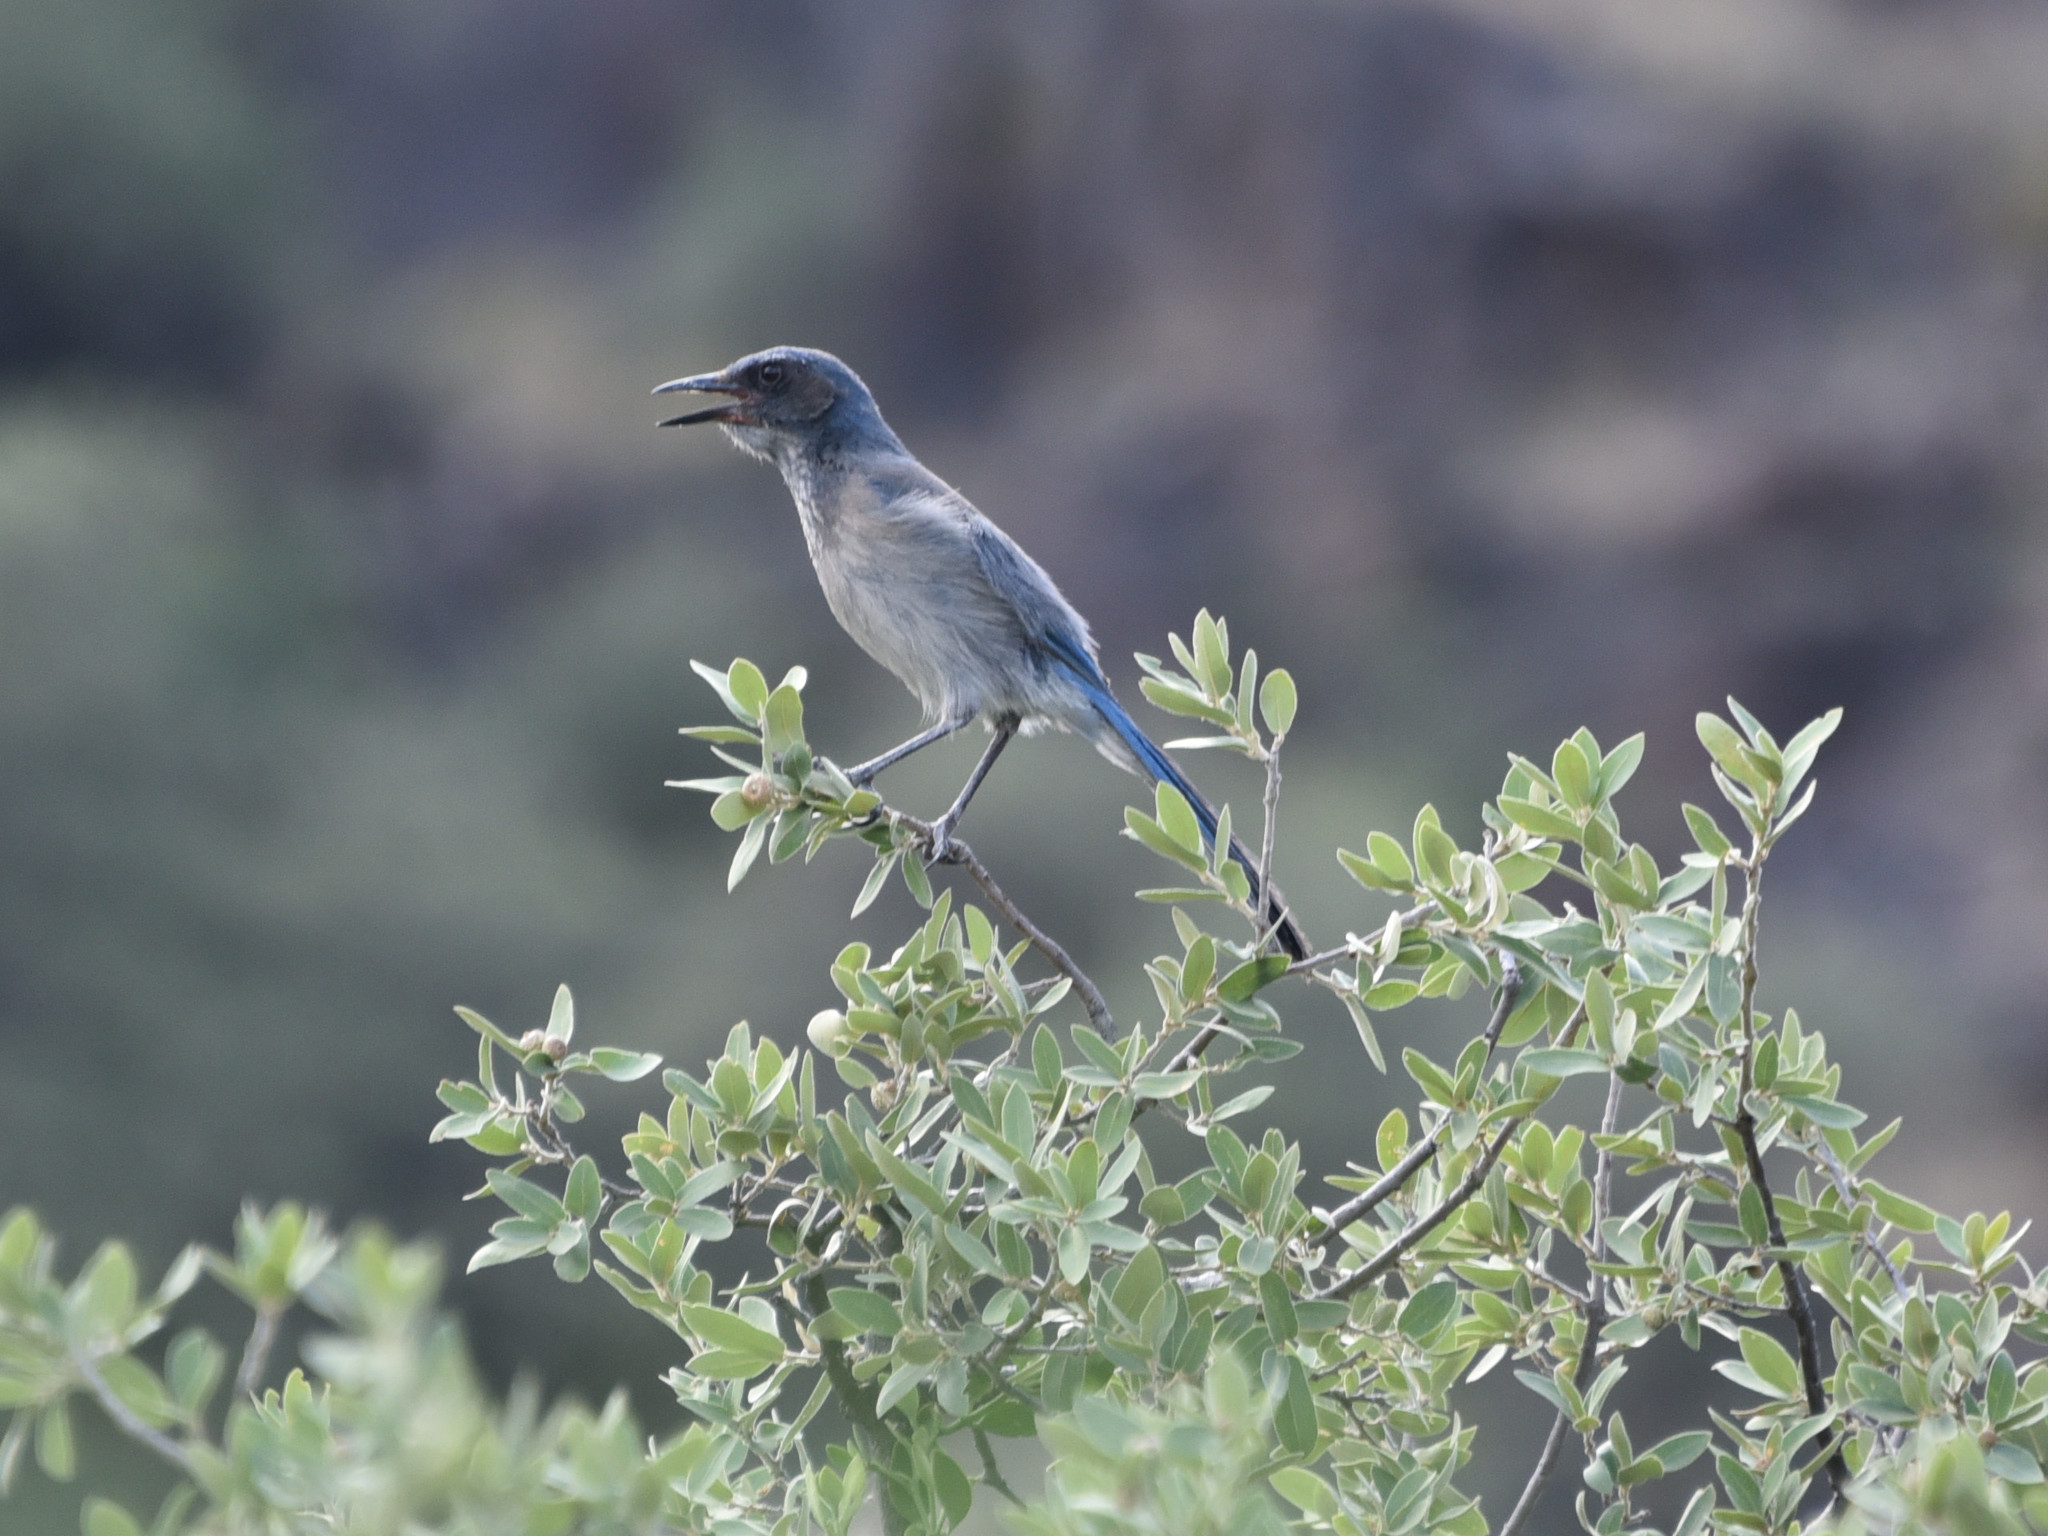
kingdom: Animalia
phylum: Chordata
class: Aves
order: Passeriformes
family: Corvidae
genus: Aphelocoma
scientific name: Aphelocoma woodhouseii
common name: Woodhouse's scrub-jay
